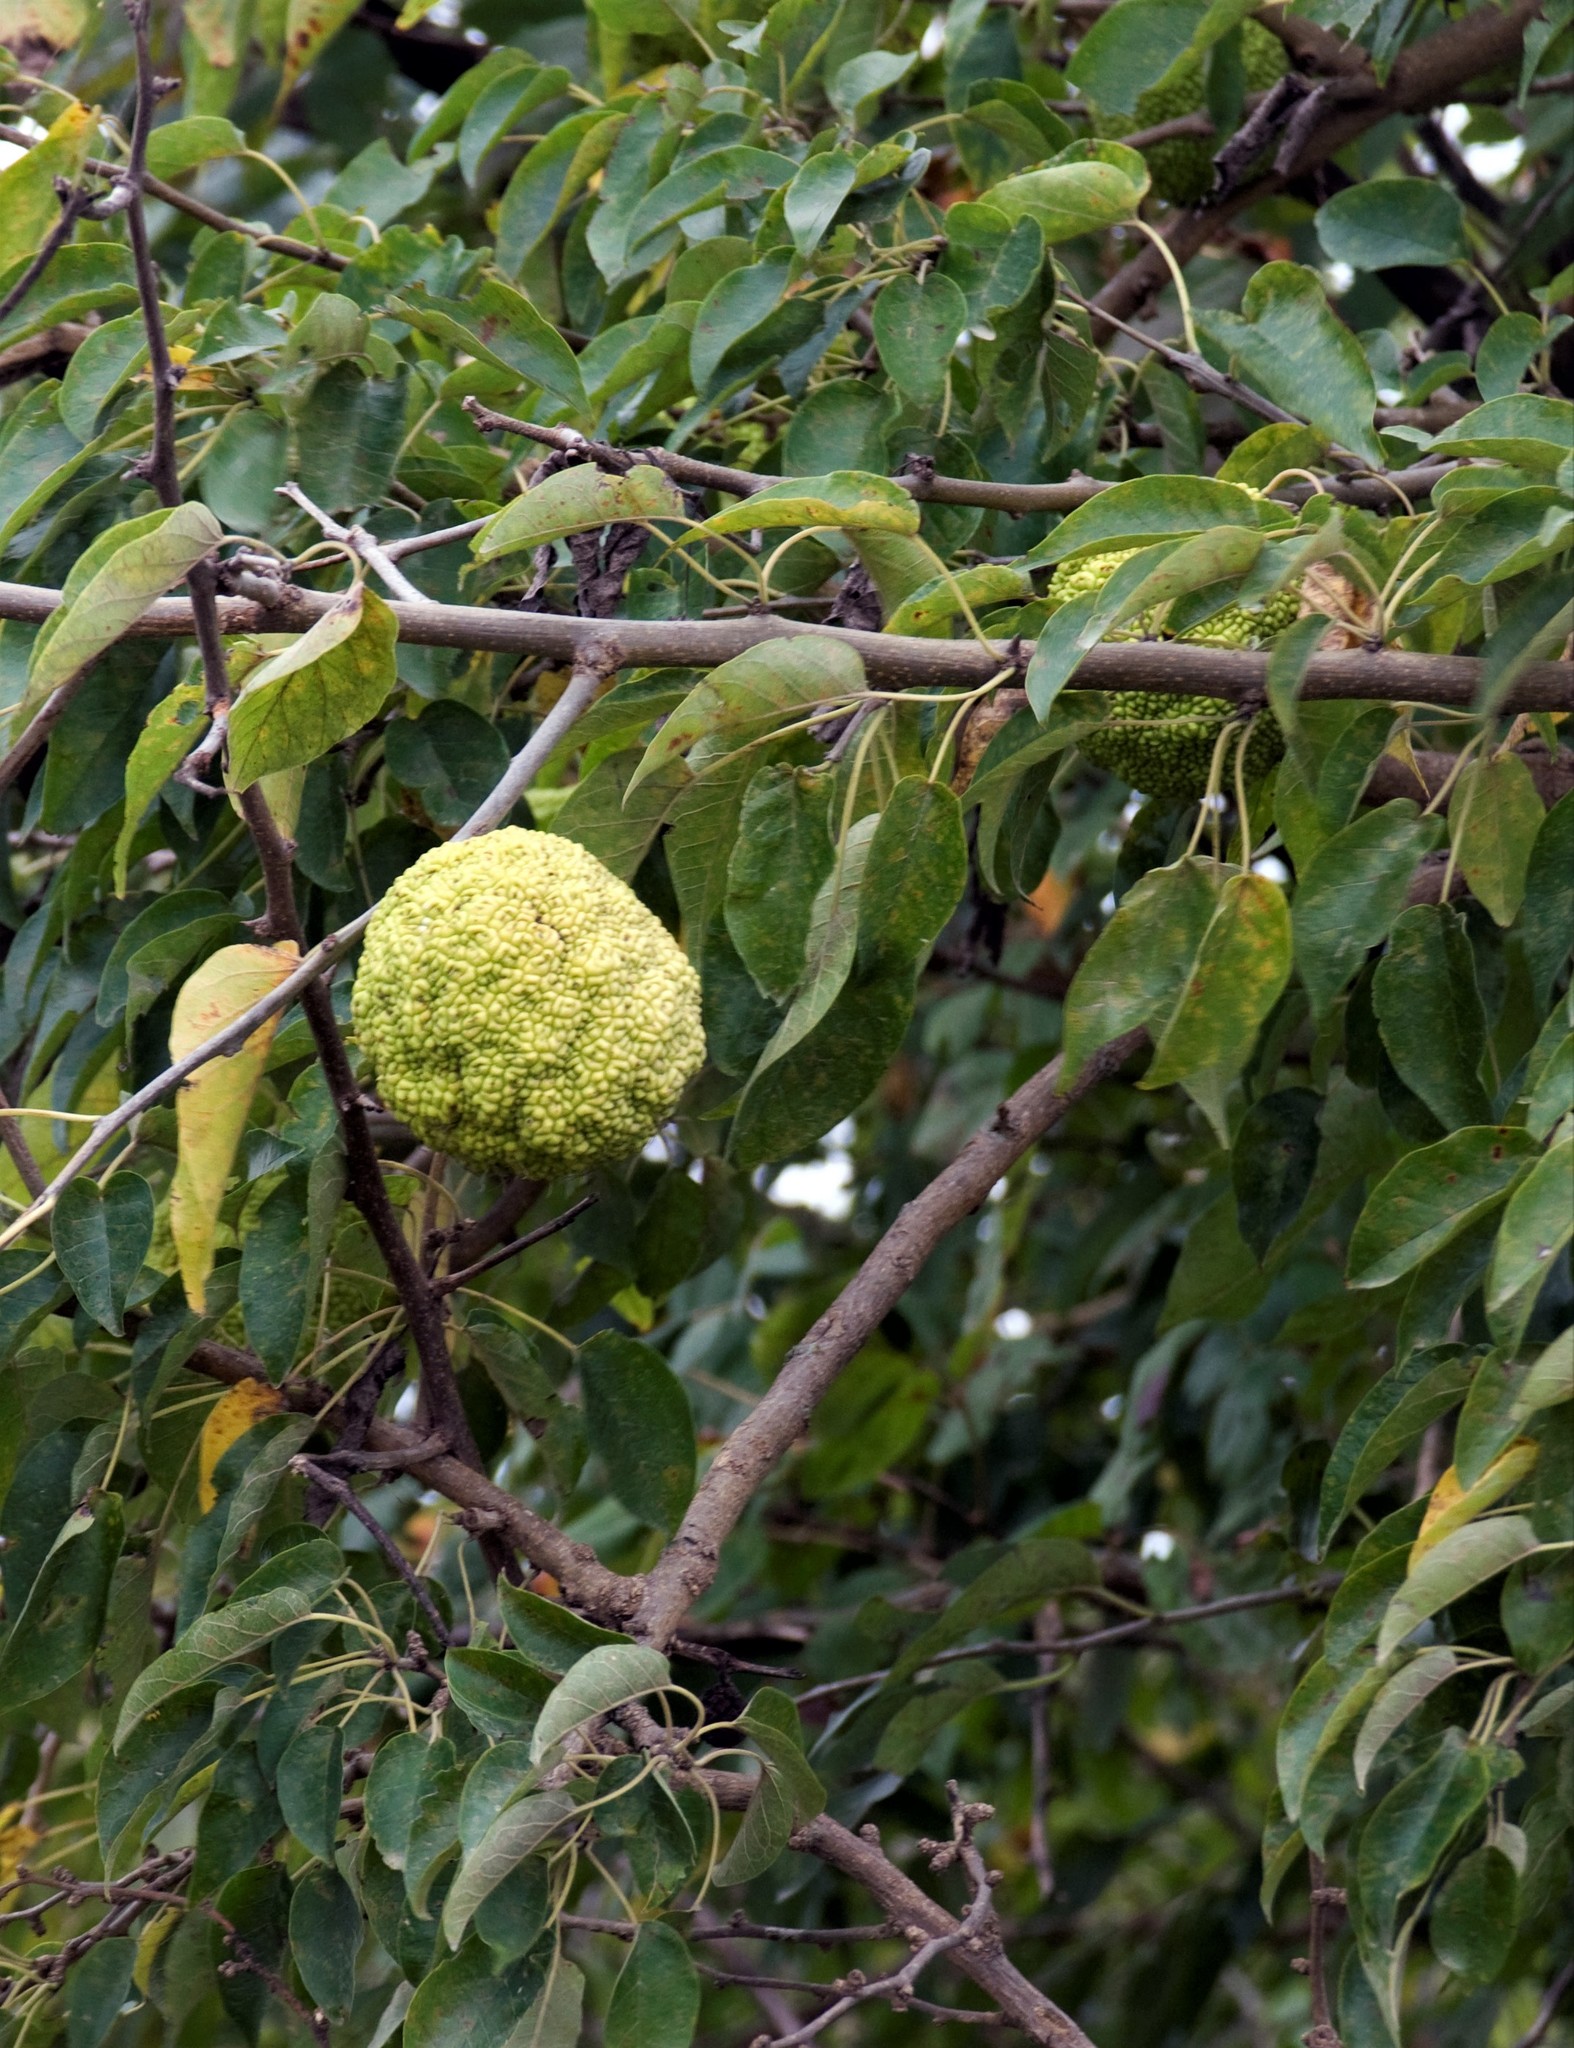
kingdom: Plantae
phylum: Tracheophyta
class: Magnoliopsida
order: Rosales
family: Moraceae
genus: Maclura
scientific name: Maclura pomifera
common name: Osage-orange
